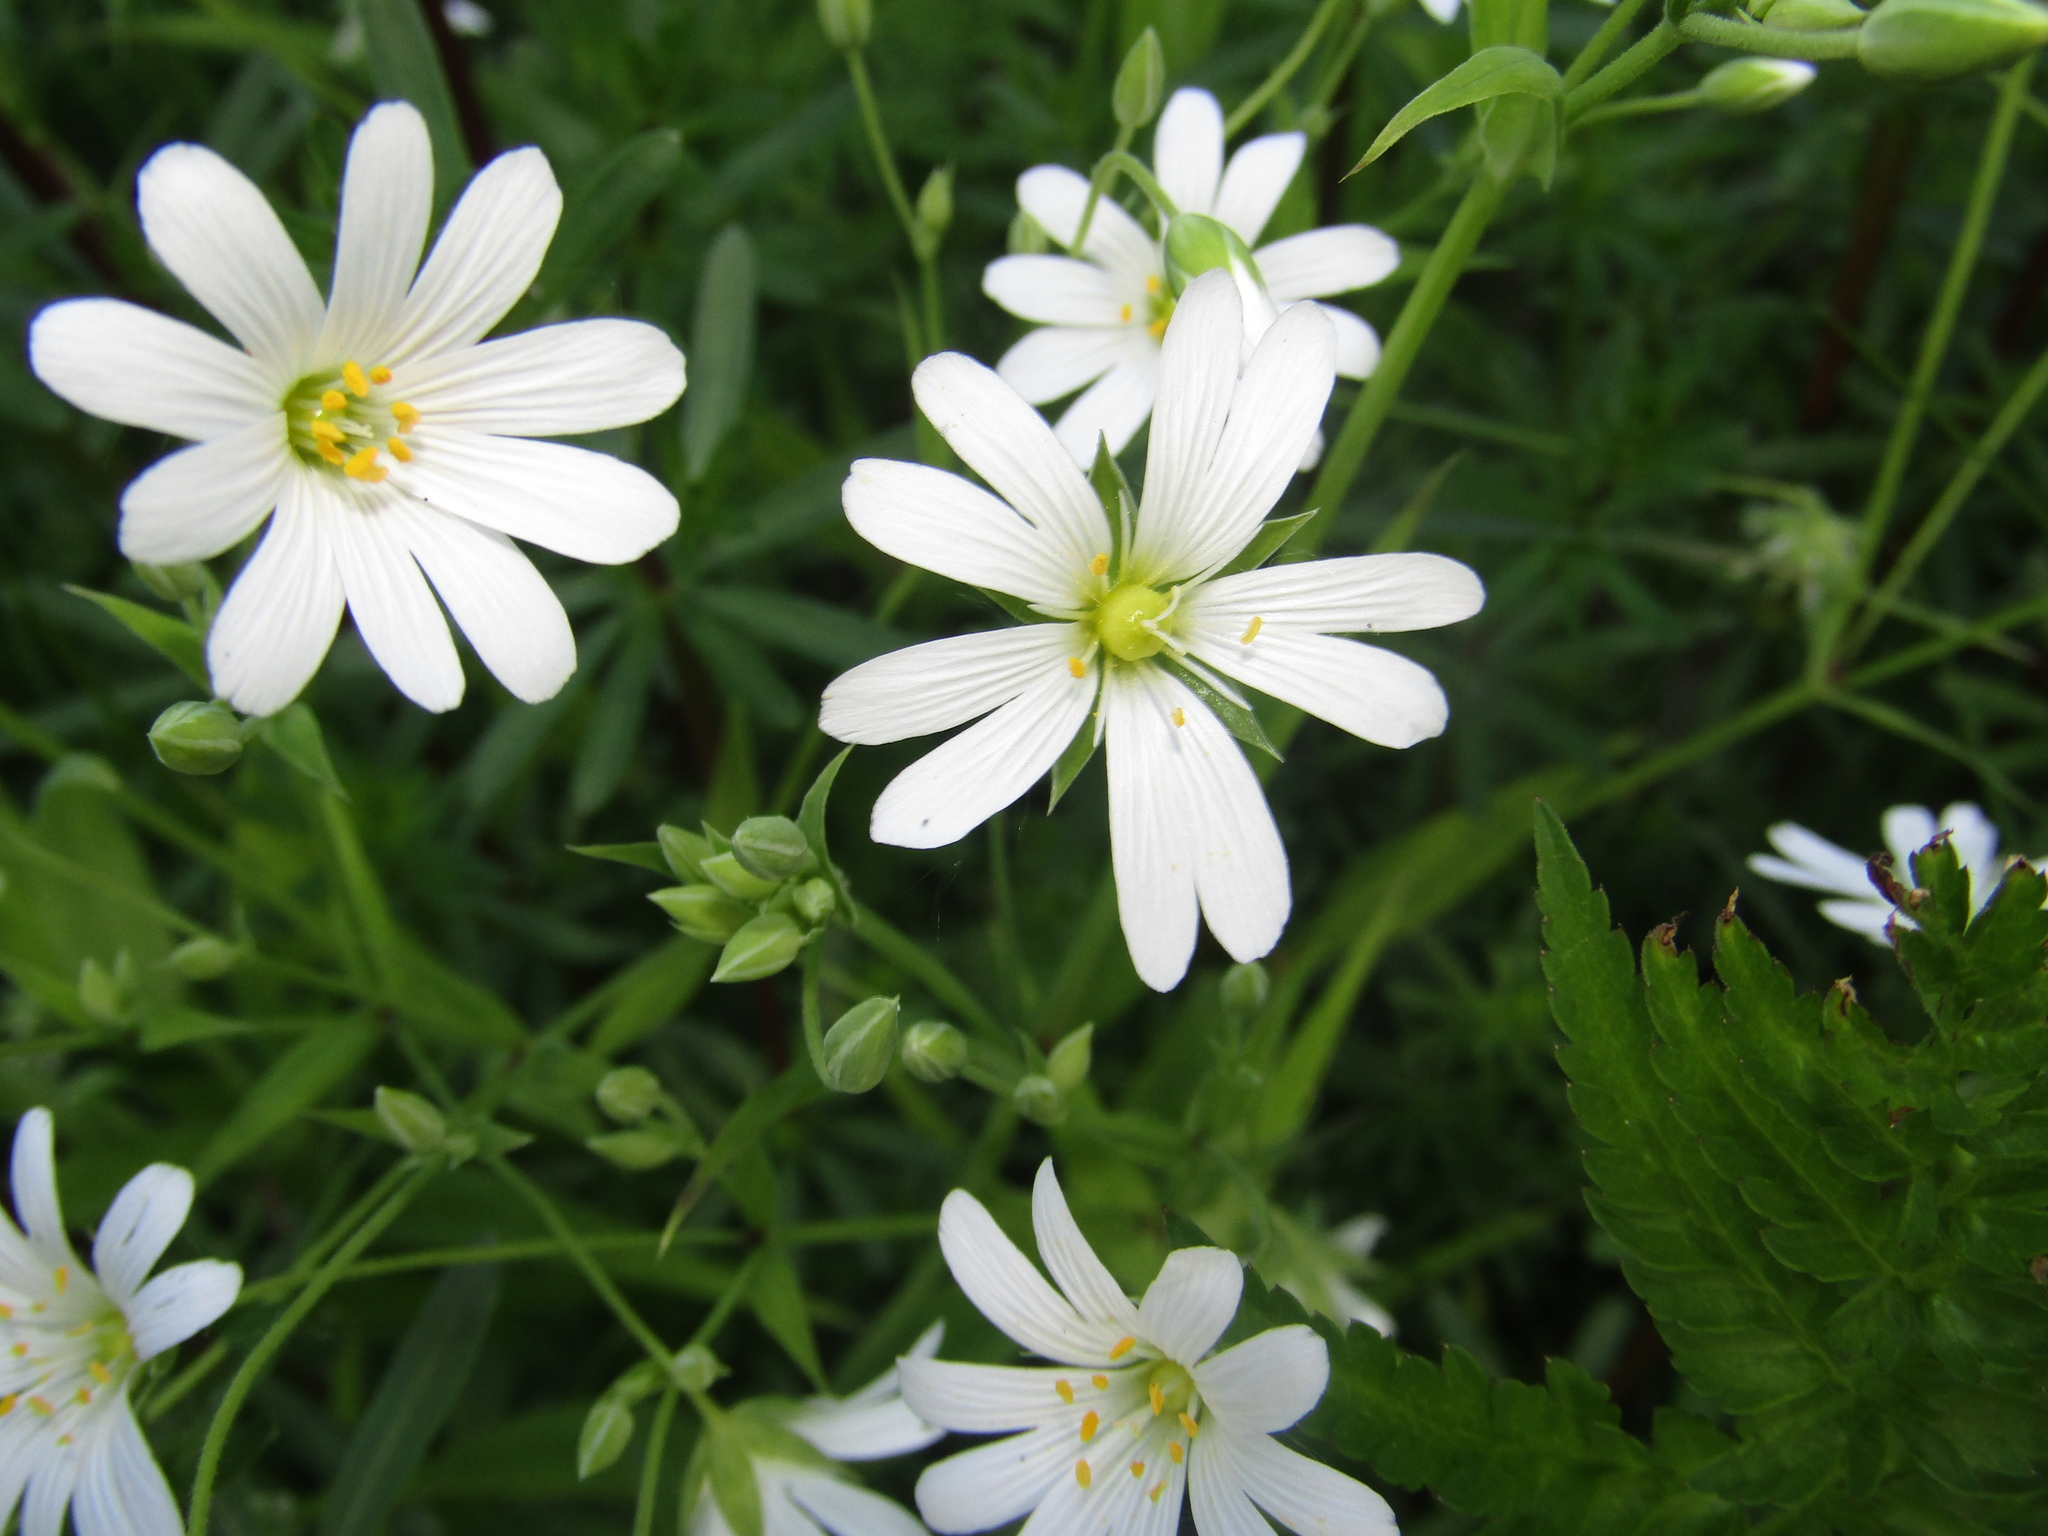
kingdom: Plantae
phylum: Tracheophyta
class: Magnoliopsida
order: Caryophyllales
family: Caryophyllaceae
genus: Rabelera
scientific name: Rabelera holostea
